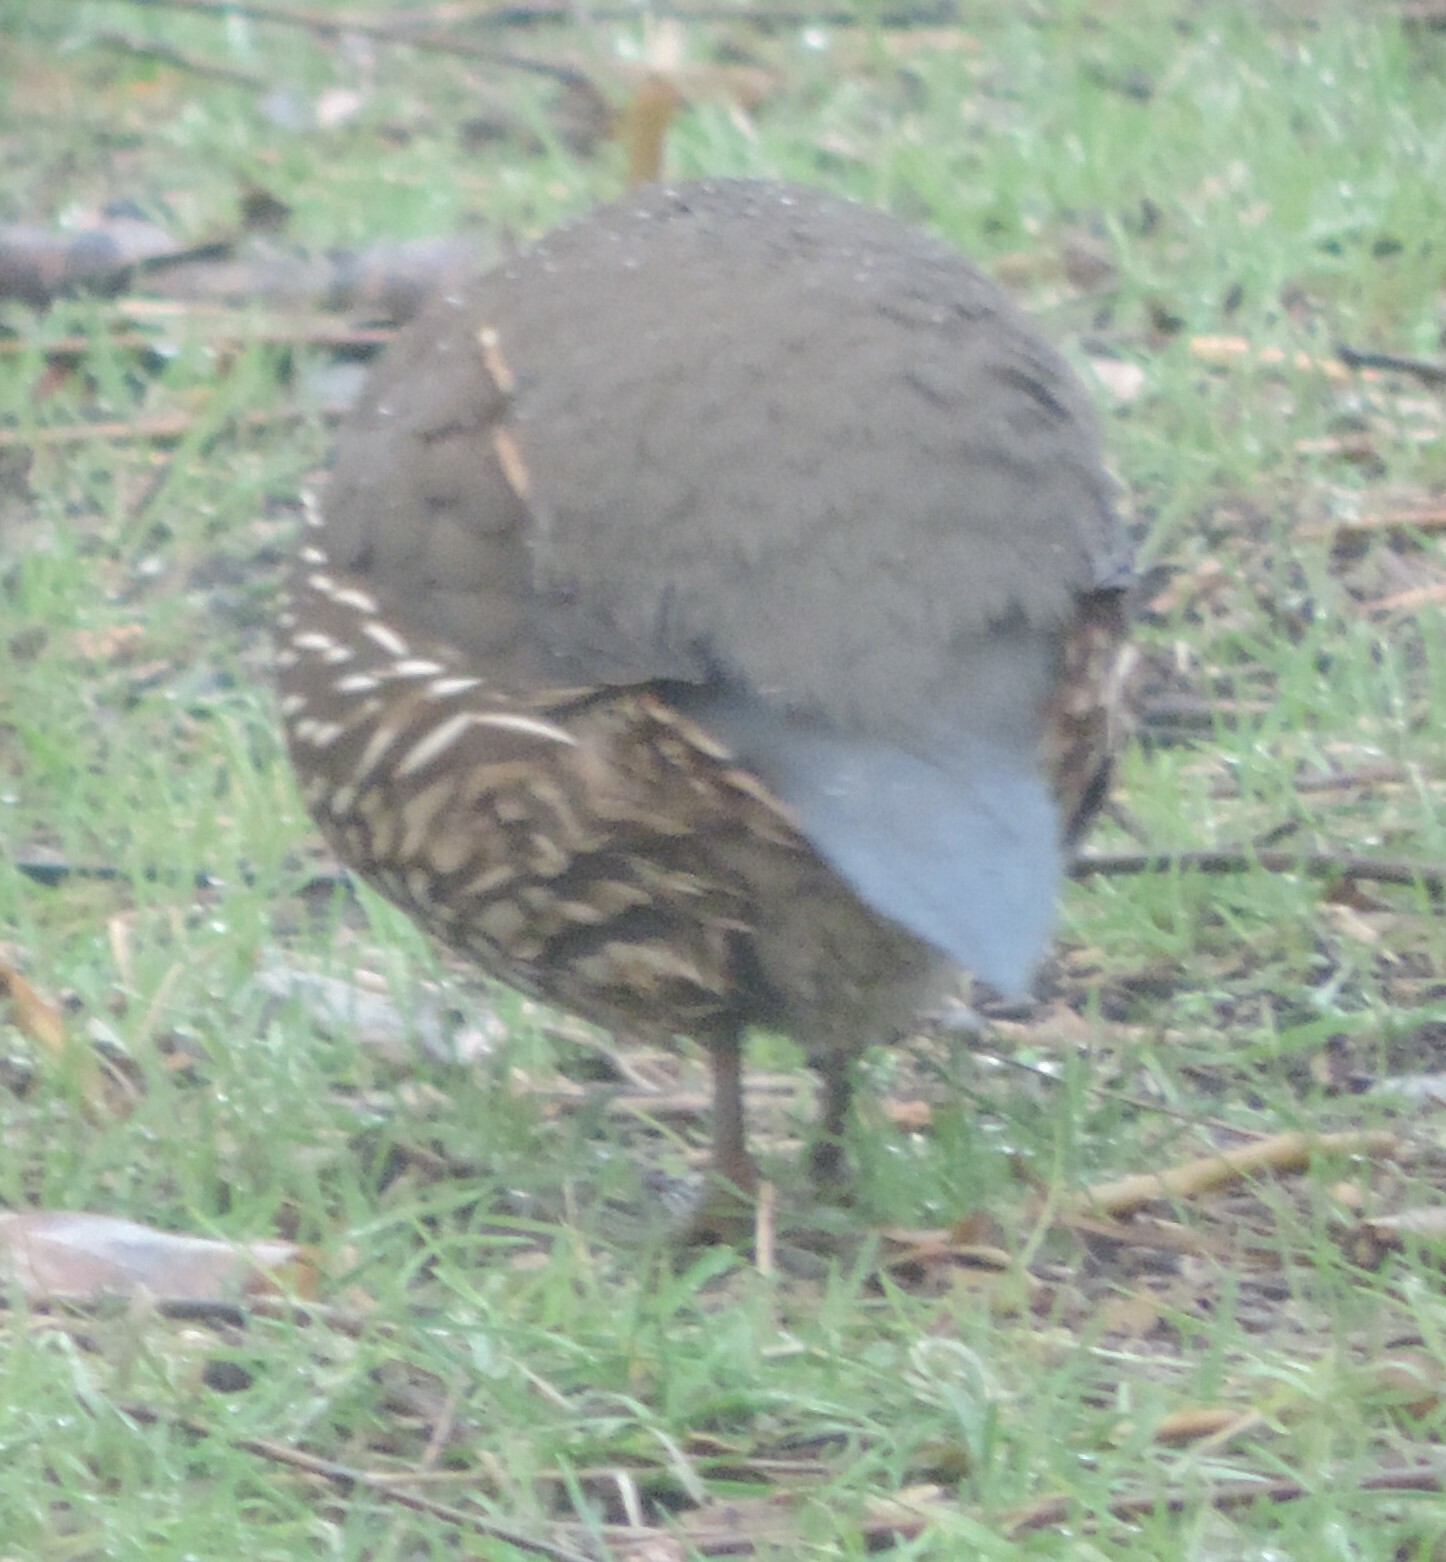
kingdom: Animalia
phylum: Chordata
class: Aves
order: Galliformes
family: Odontophoridae
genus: Callipepla
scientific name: Callipepla californica
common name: California quail
